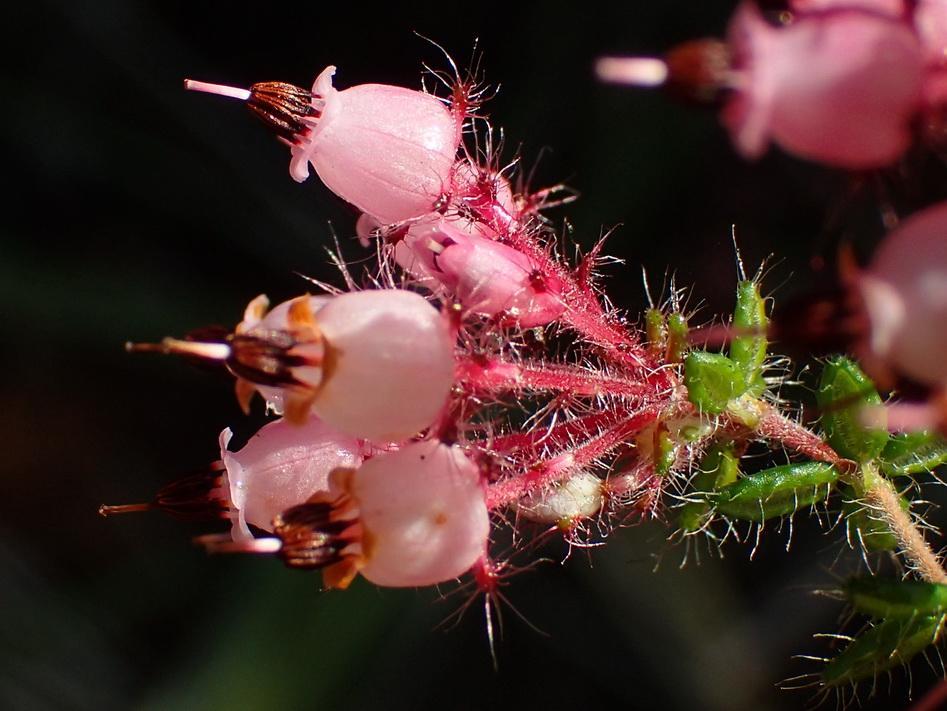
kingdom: Plantae
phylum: Tracheophyta
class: Magnoliopsida
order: Ericales
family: Ericaceae
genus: Erica
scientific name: Erica aneimena
